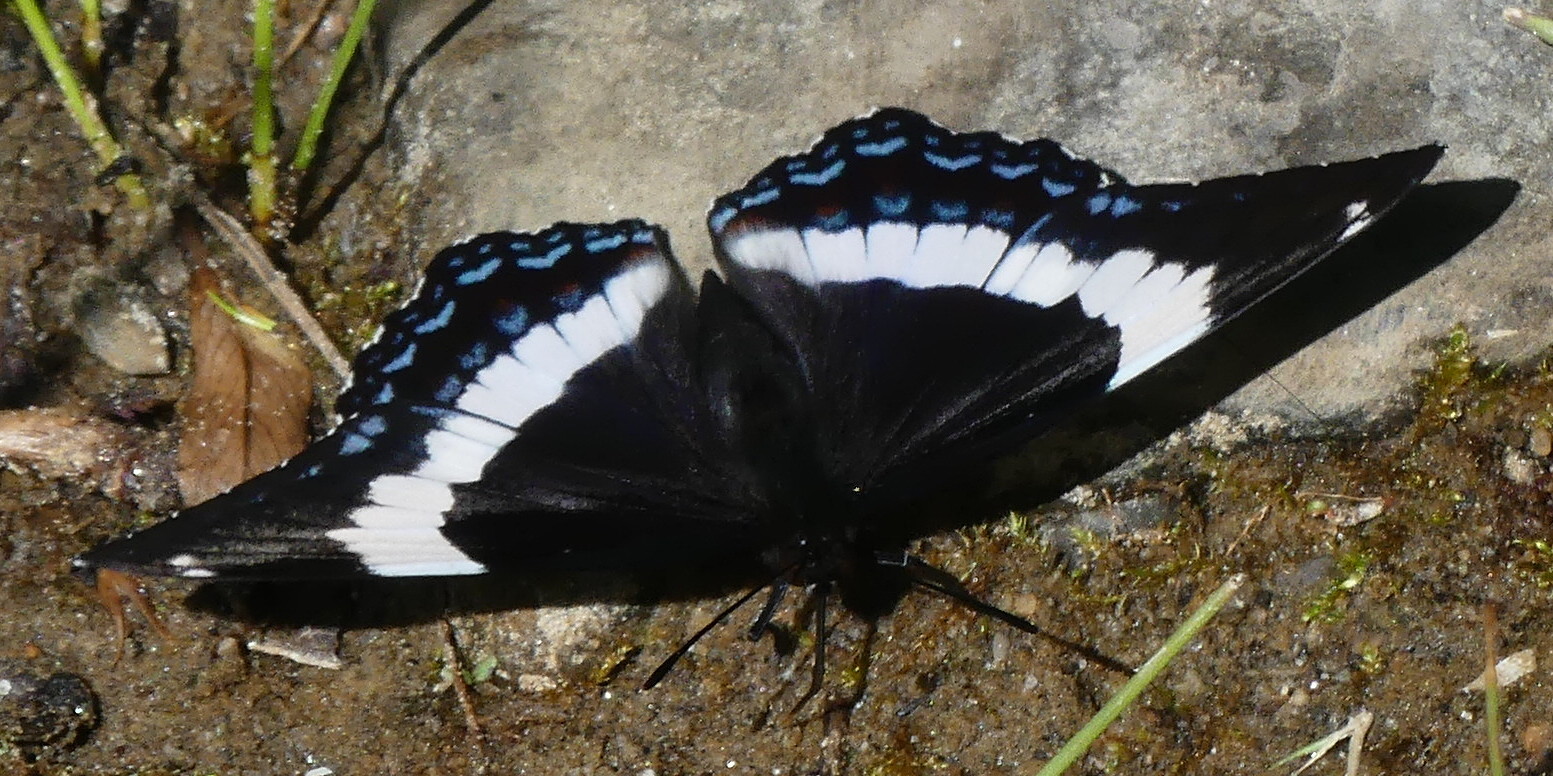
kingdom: Animalia
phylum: Arthropoda
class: Insecta
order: Lepidoptera
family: Nymphalidae
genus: Limenitis
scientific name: Limenitis arthemis
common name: Red-spotted admiral
